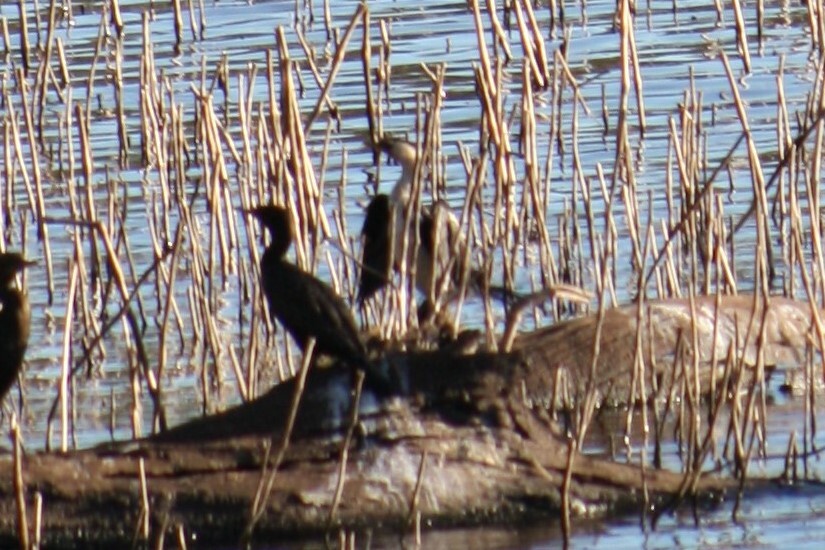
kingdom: Animalia
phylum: Chordata
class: Aves
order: Suliformes
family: Phalacrocoracidae
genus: Microcarbo
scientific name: Microcarbo melanoleucos
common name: Little pied cormorant
